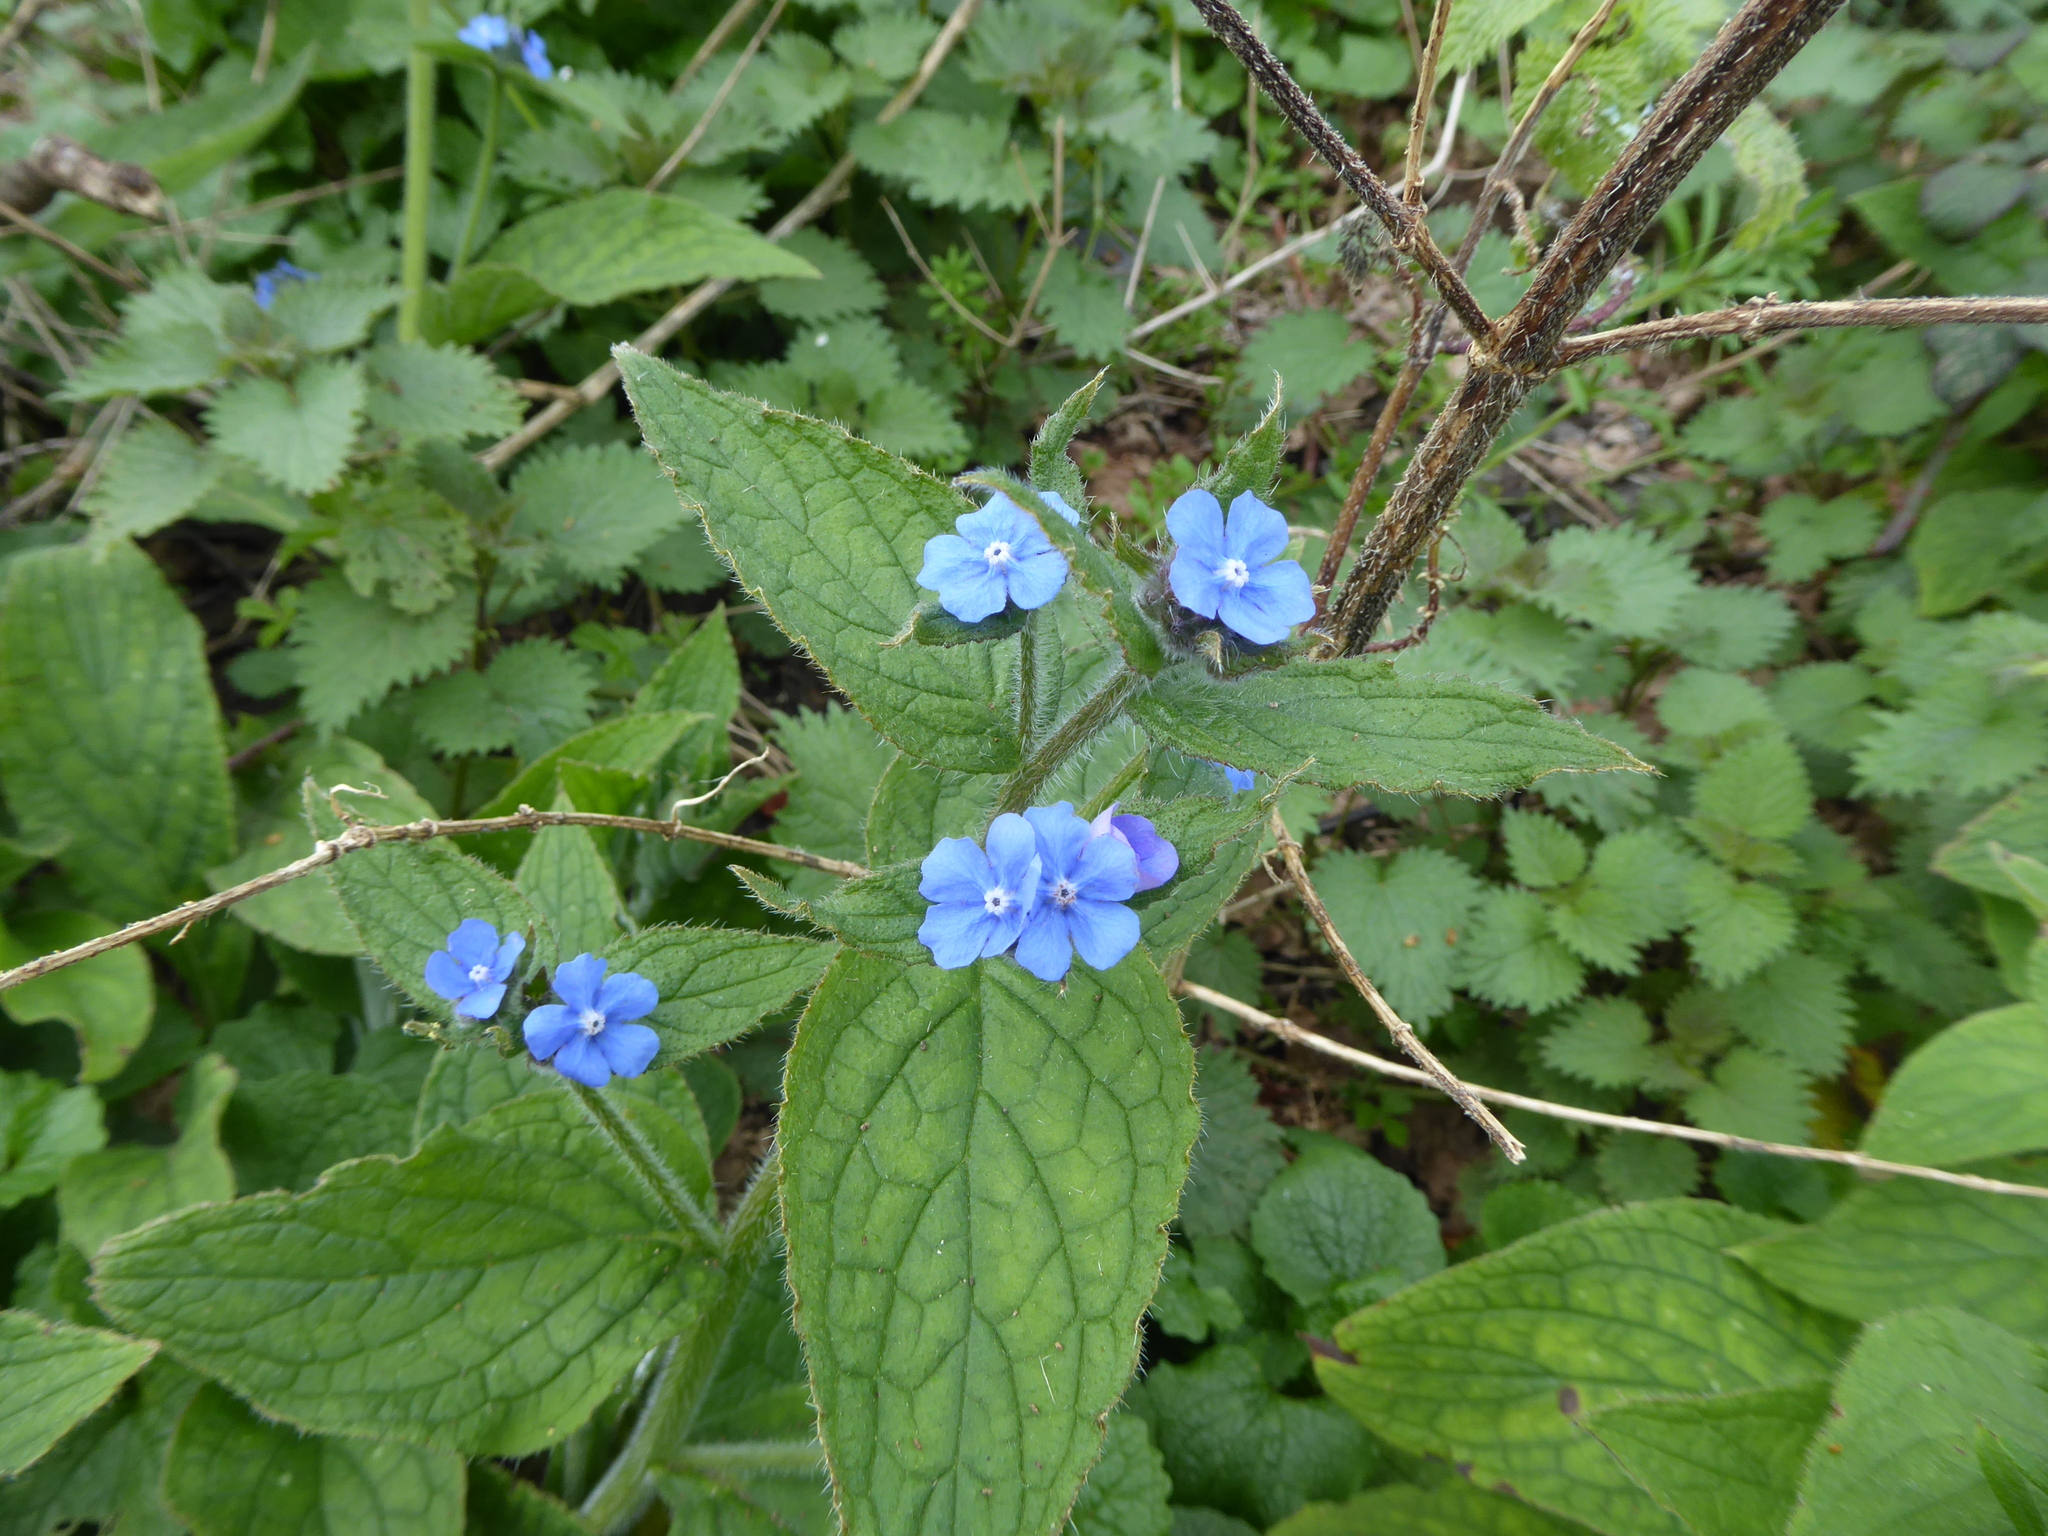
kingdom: Plantae
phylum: Tracheophyta
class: Magnoliopsida
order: Boraginales
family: Boraginaceae
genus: Pentaglottis
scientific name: Pentaglottis sempervirens
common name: Green alkanet
